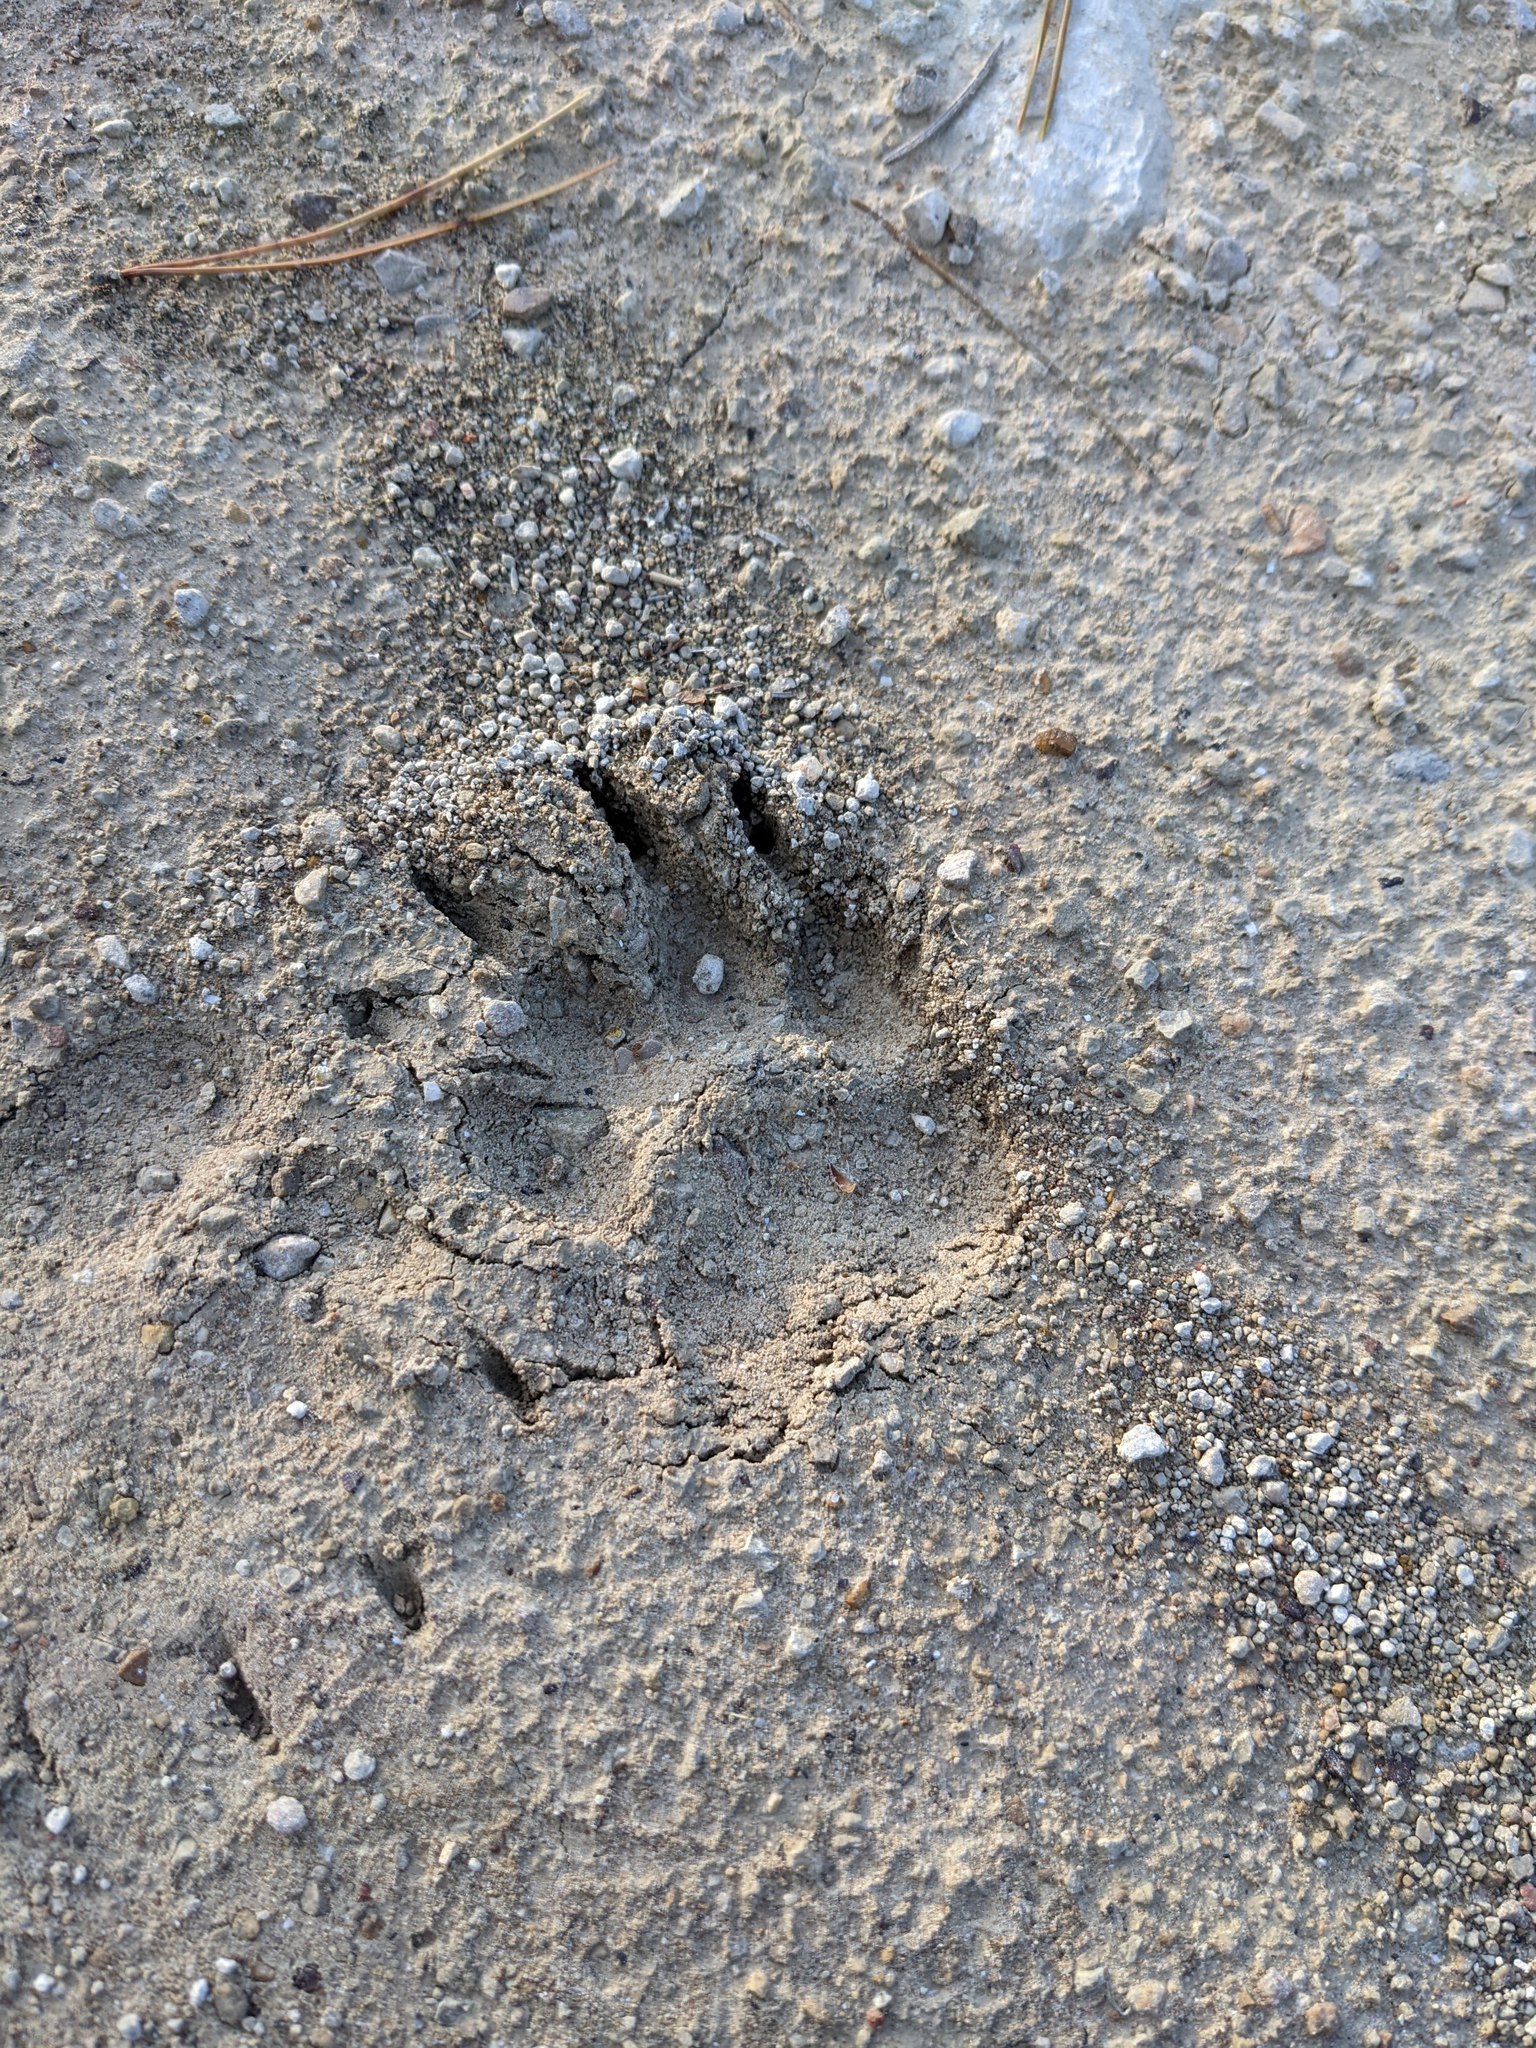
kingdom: Animalia
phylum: Chordata
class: Mammalia
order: Carnivora
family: Mustelidae
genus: Meles
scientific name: Meles meles
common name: Eurasian badger
